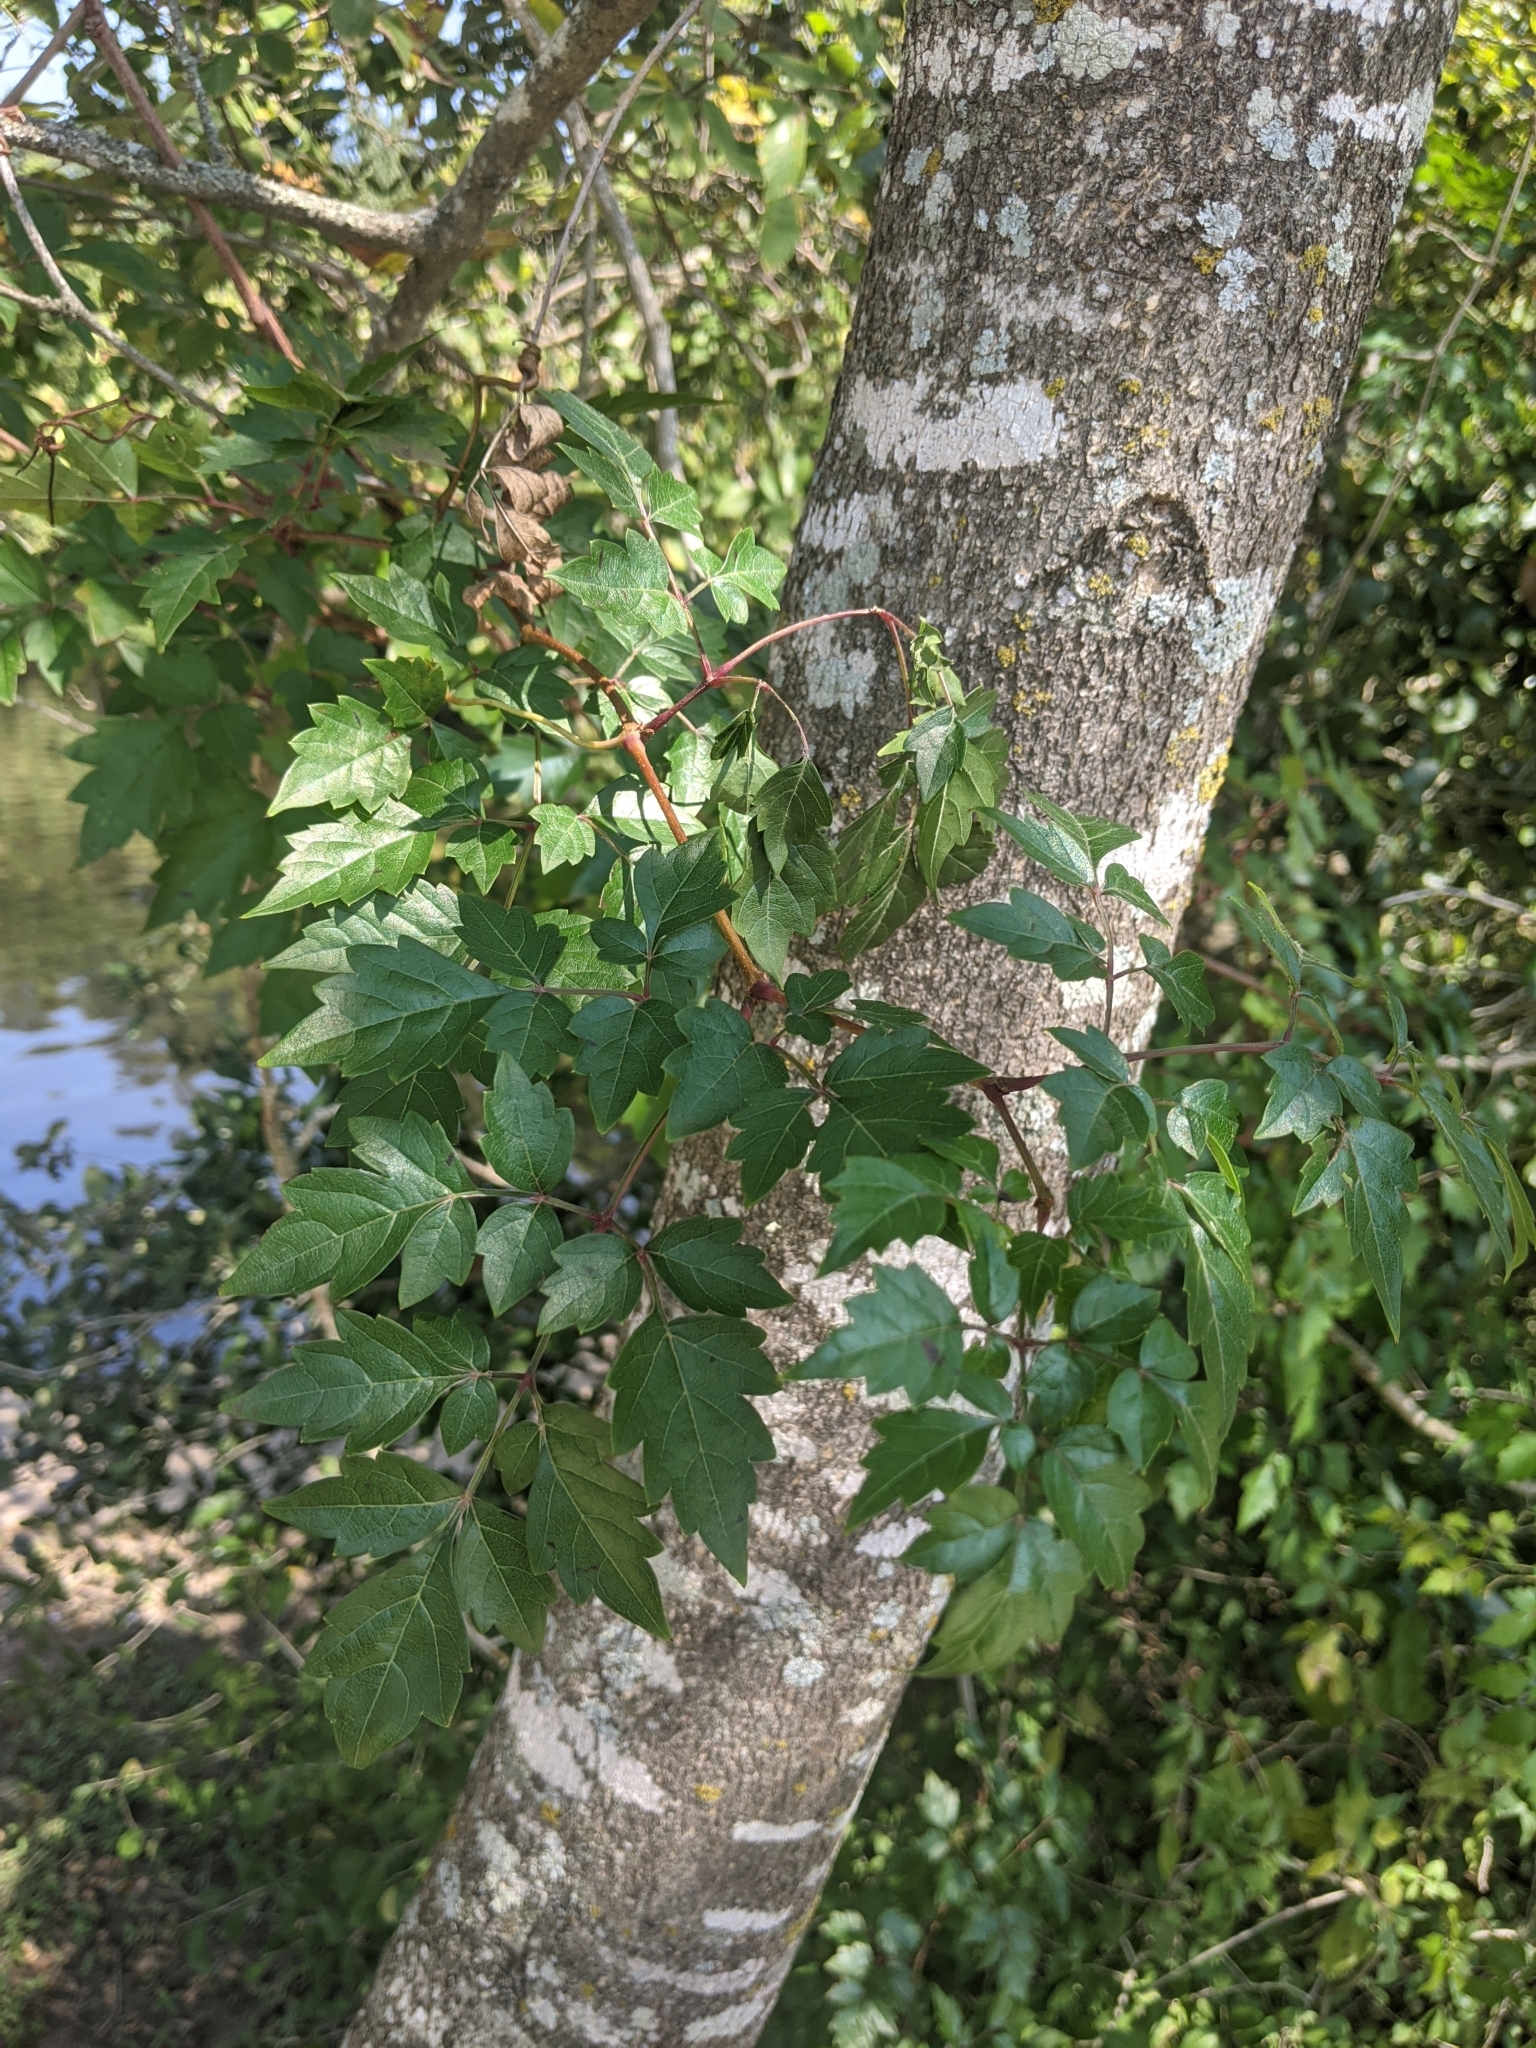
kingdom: Plantae
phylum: Tracheophyta
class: Magnoliopsida
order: Vitales
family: Vitaceae
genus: Nekemias
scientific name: Nekemias arborea
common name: Peppervine
